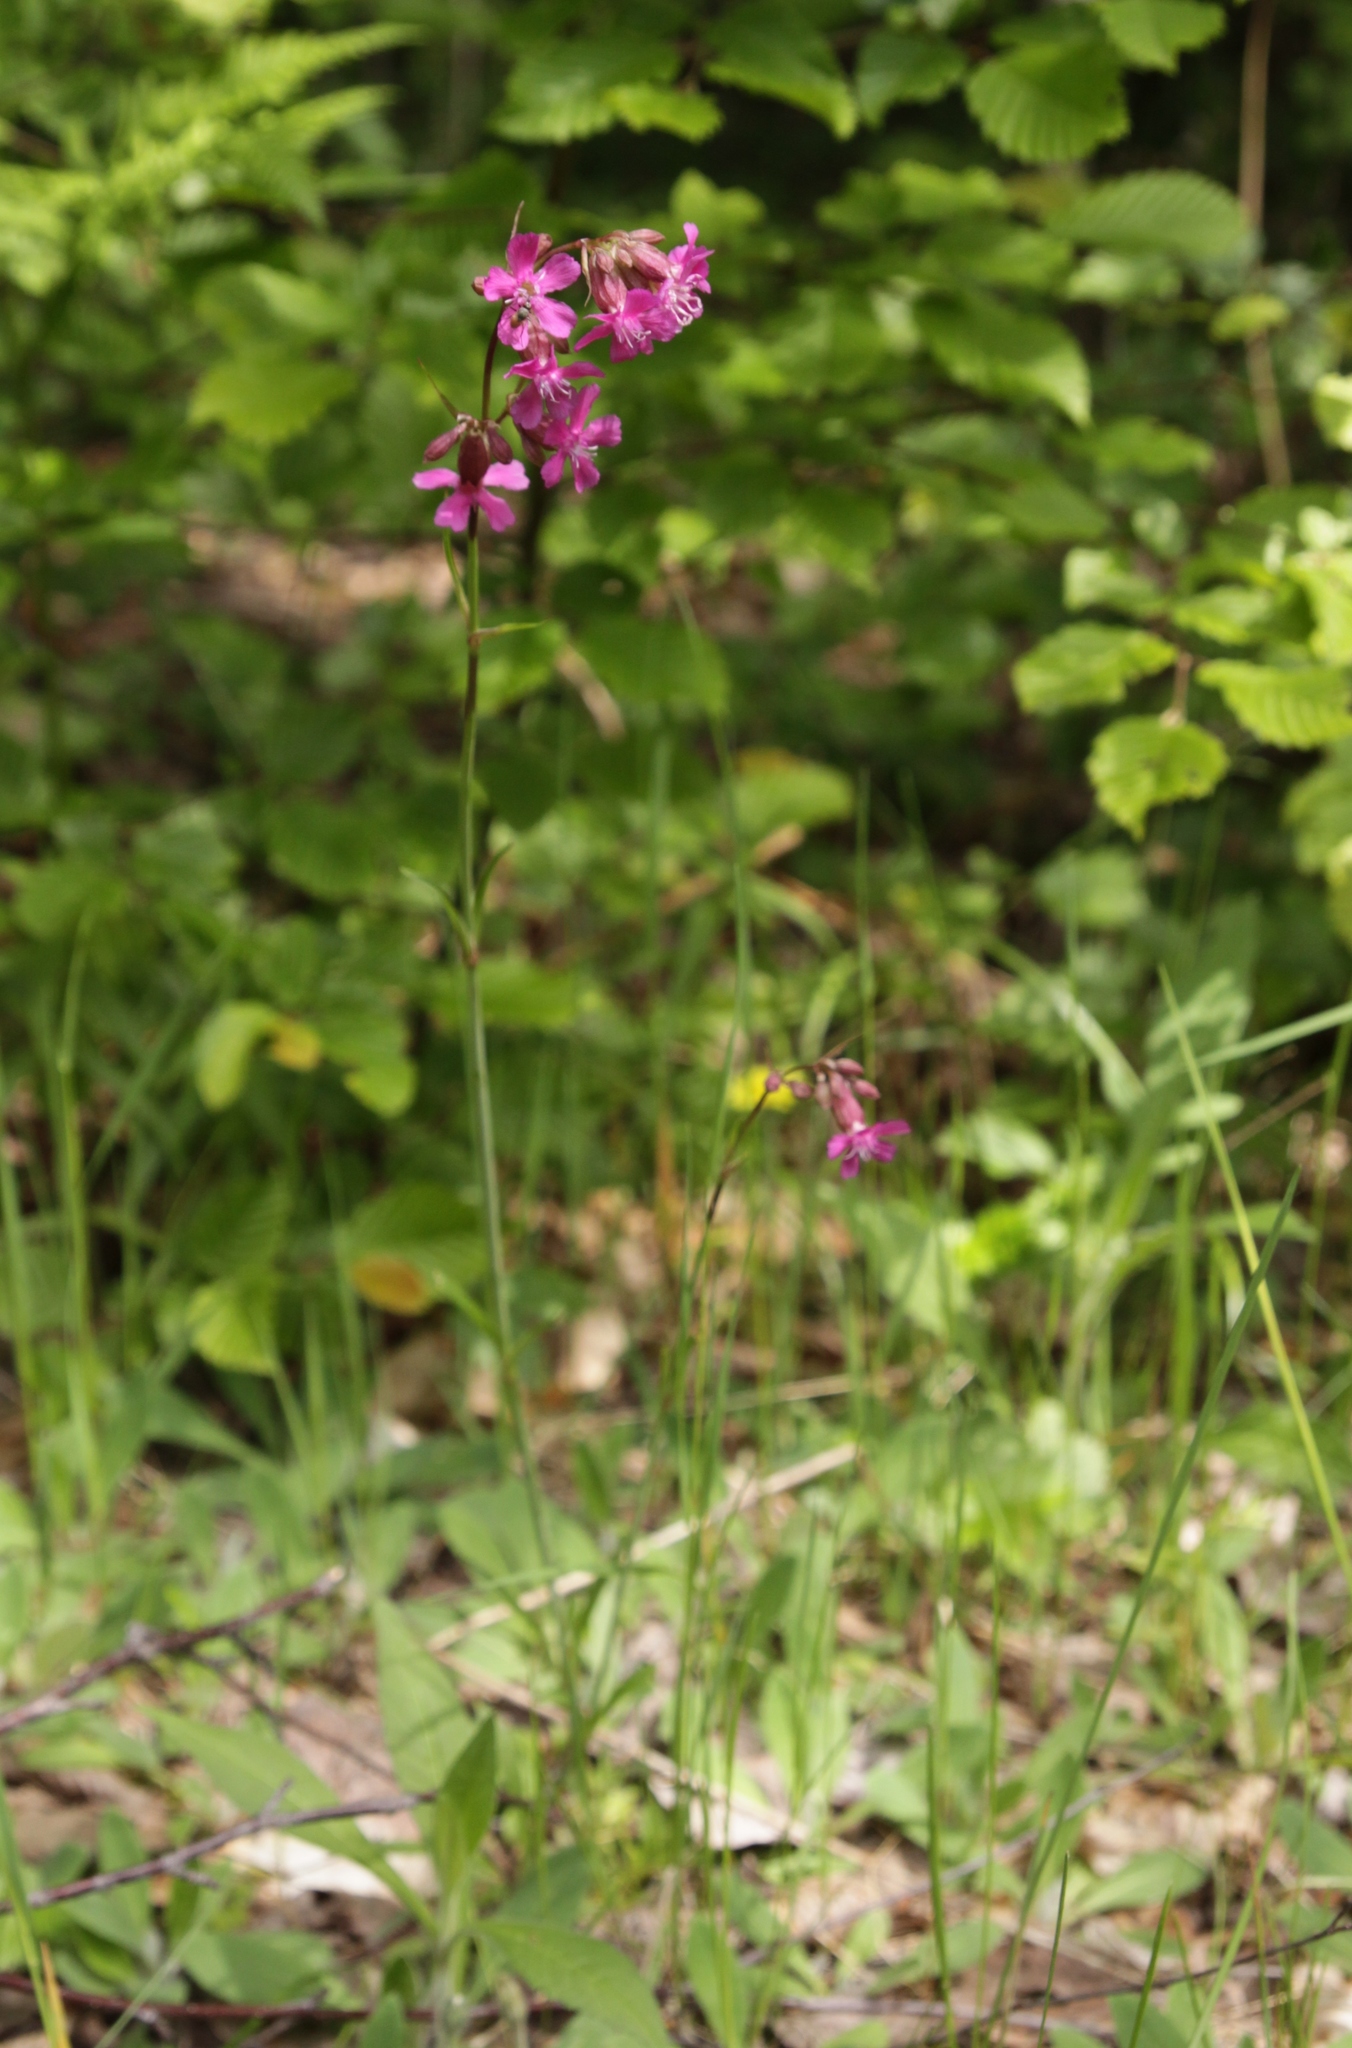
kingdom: Plantae
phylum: Tracheophyta
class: Magnoliopsida
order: Caryophyllales
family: Caryophyllaceae
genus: Viscaria
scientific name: Viscaria vulgaris
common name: Clammy campion
